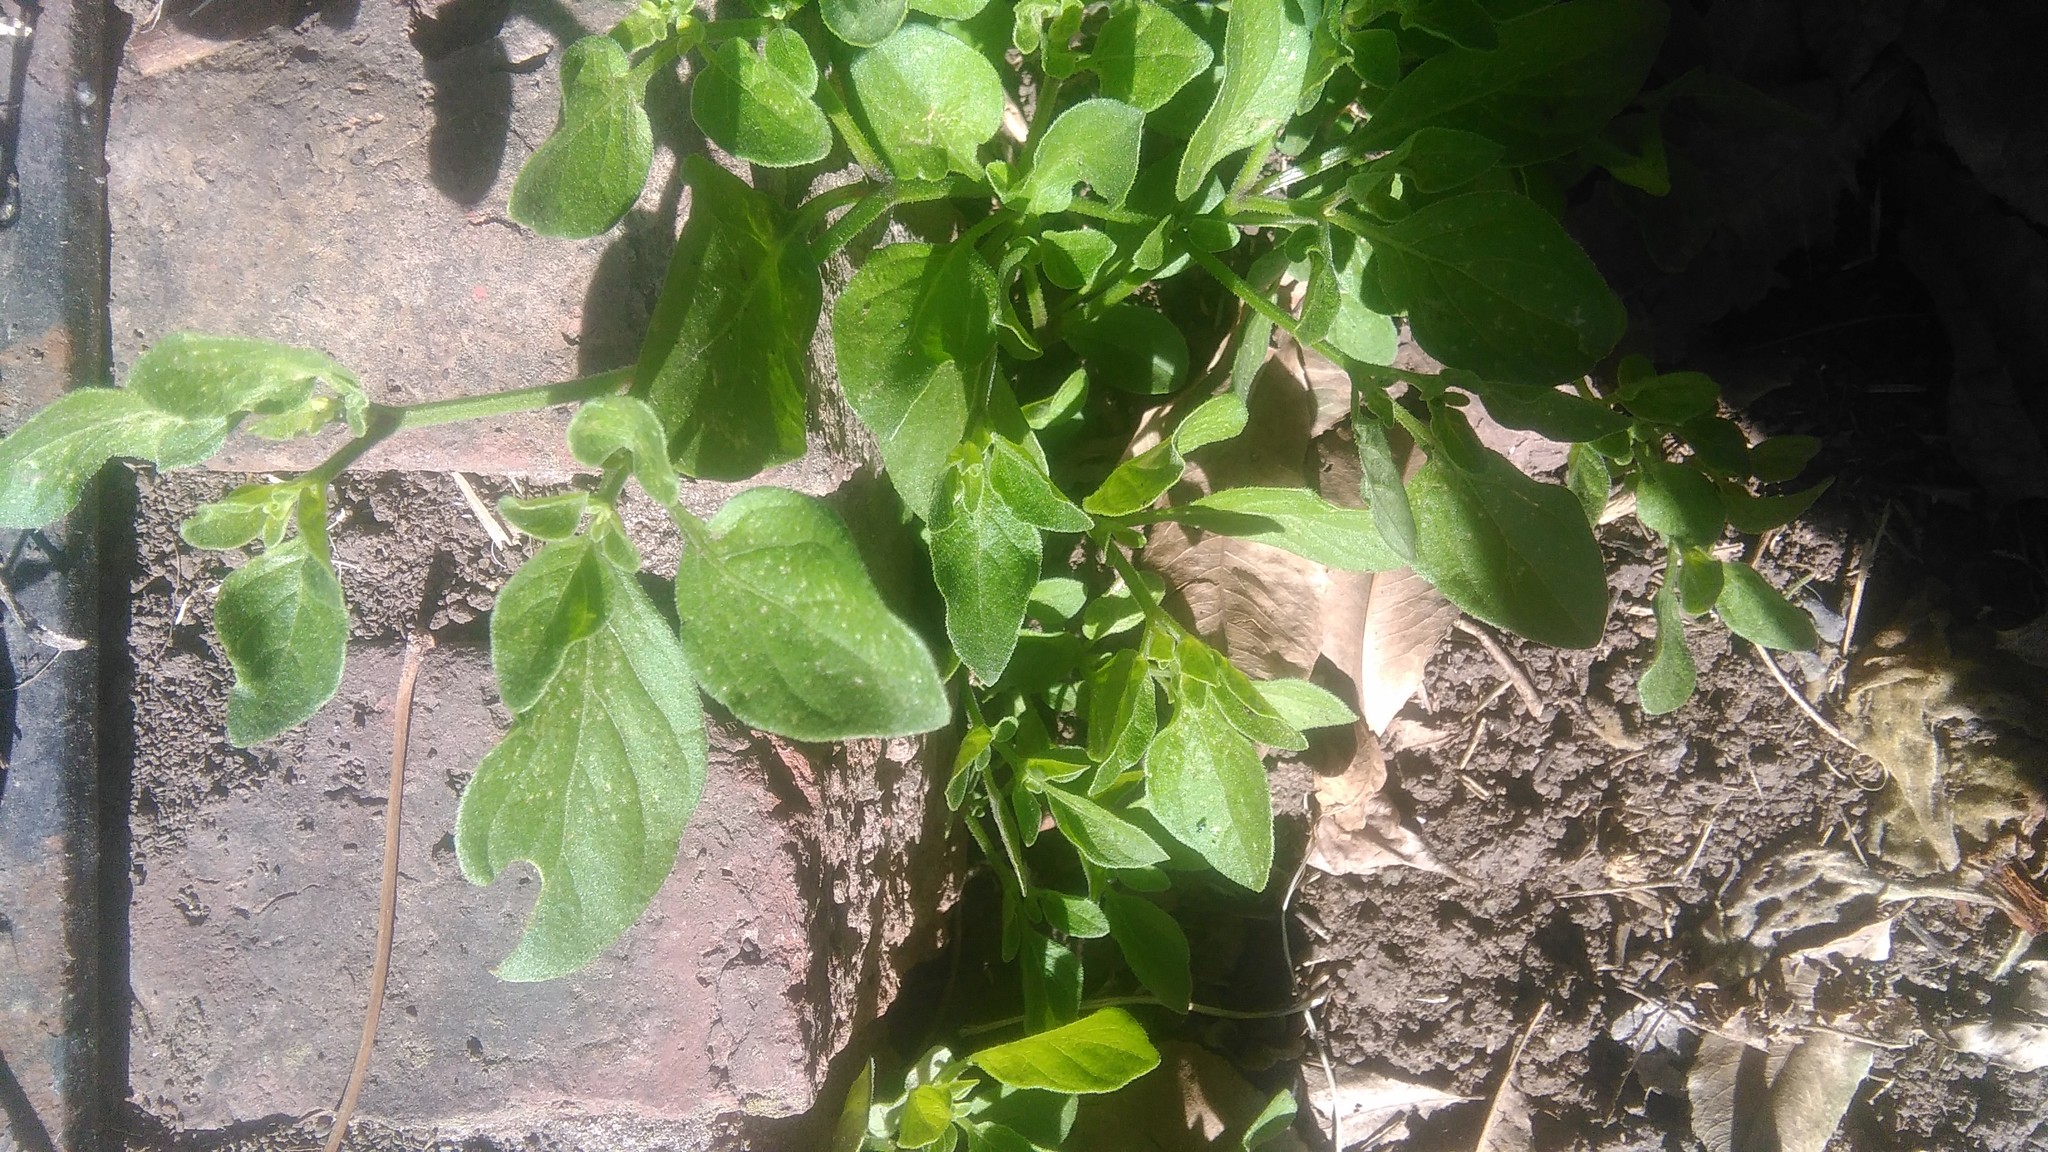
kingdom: Plantae
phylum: Tracheophyta
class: Magnoliopsida
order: Solanales
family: Solanaceae
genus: Salpichroa
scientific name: Salpichroa origanifolia
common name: Lily-of-the-valley-vine
